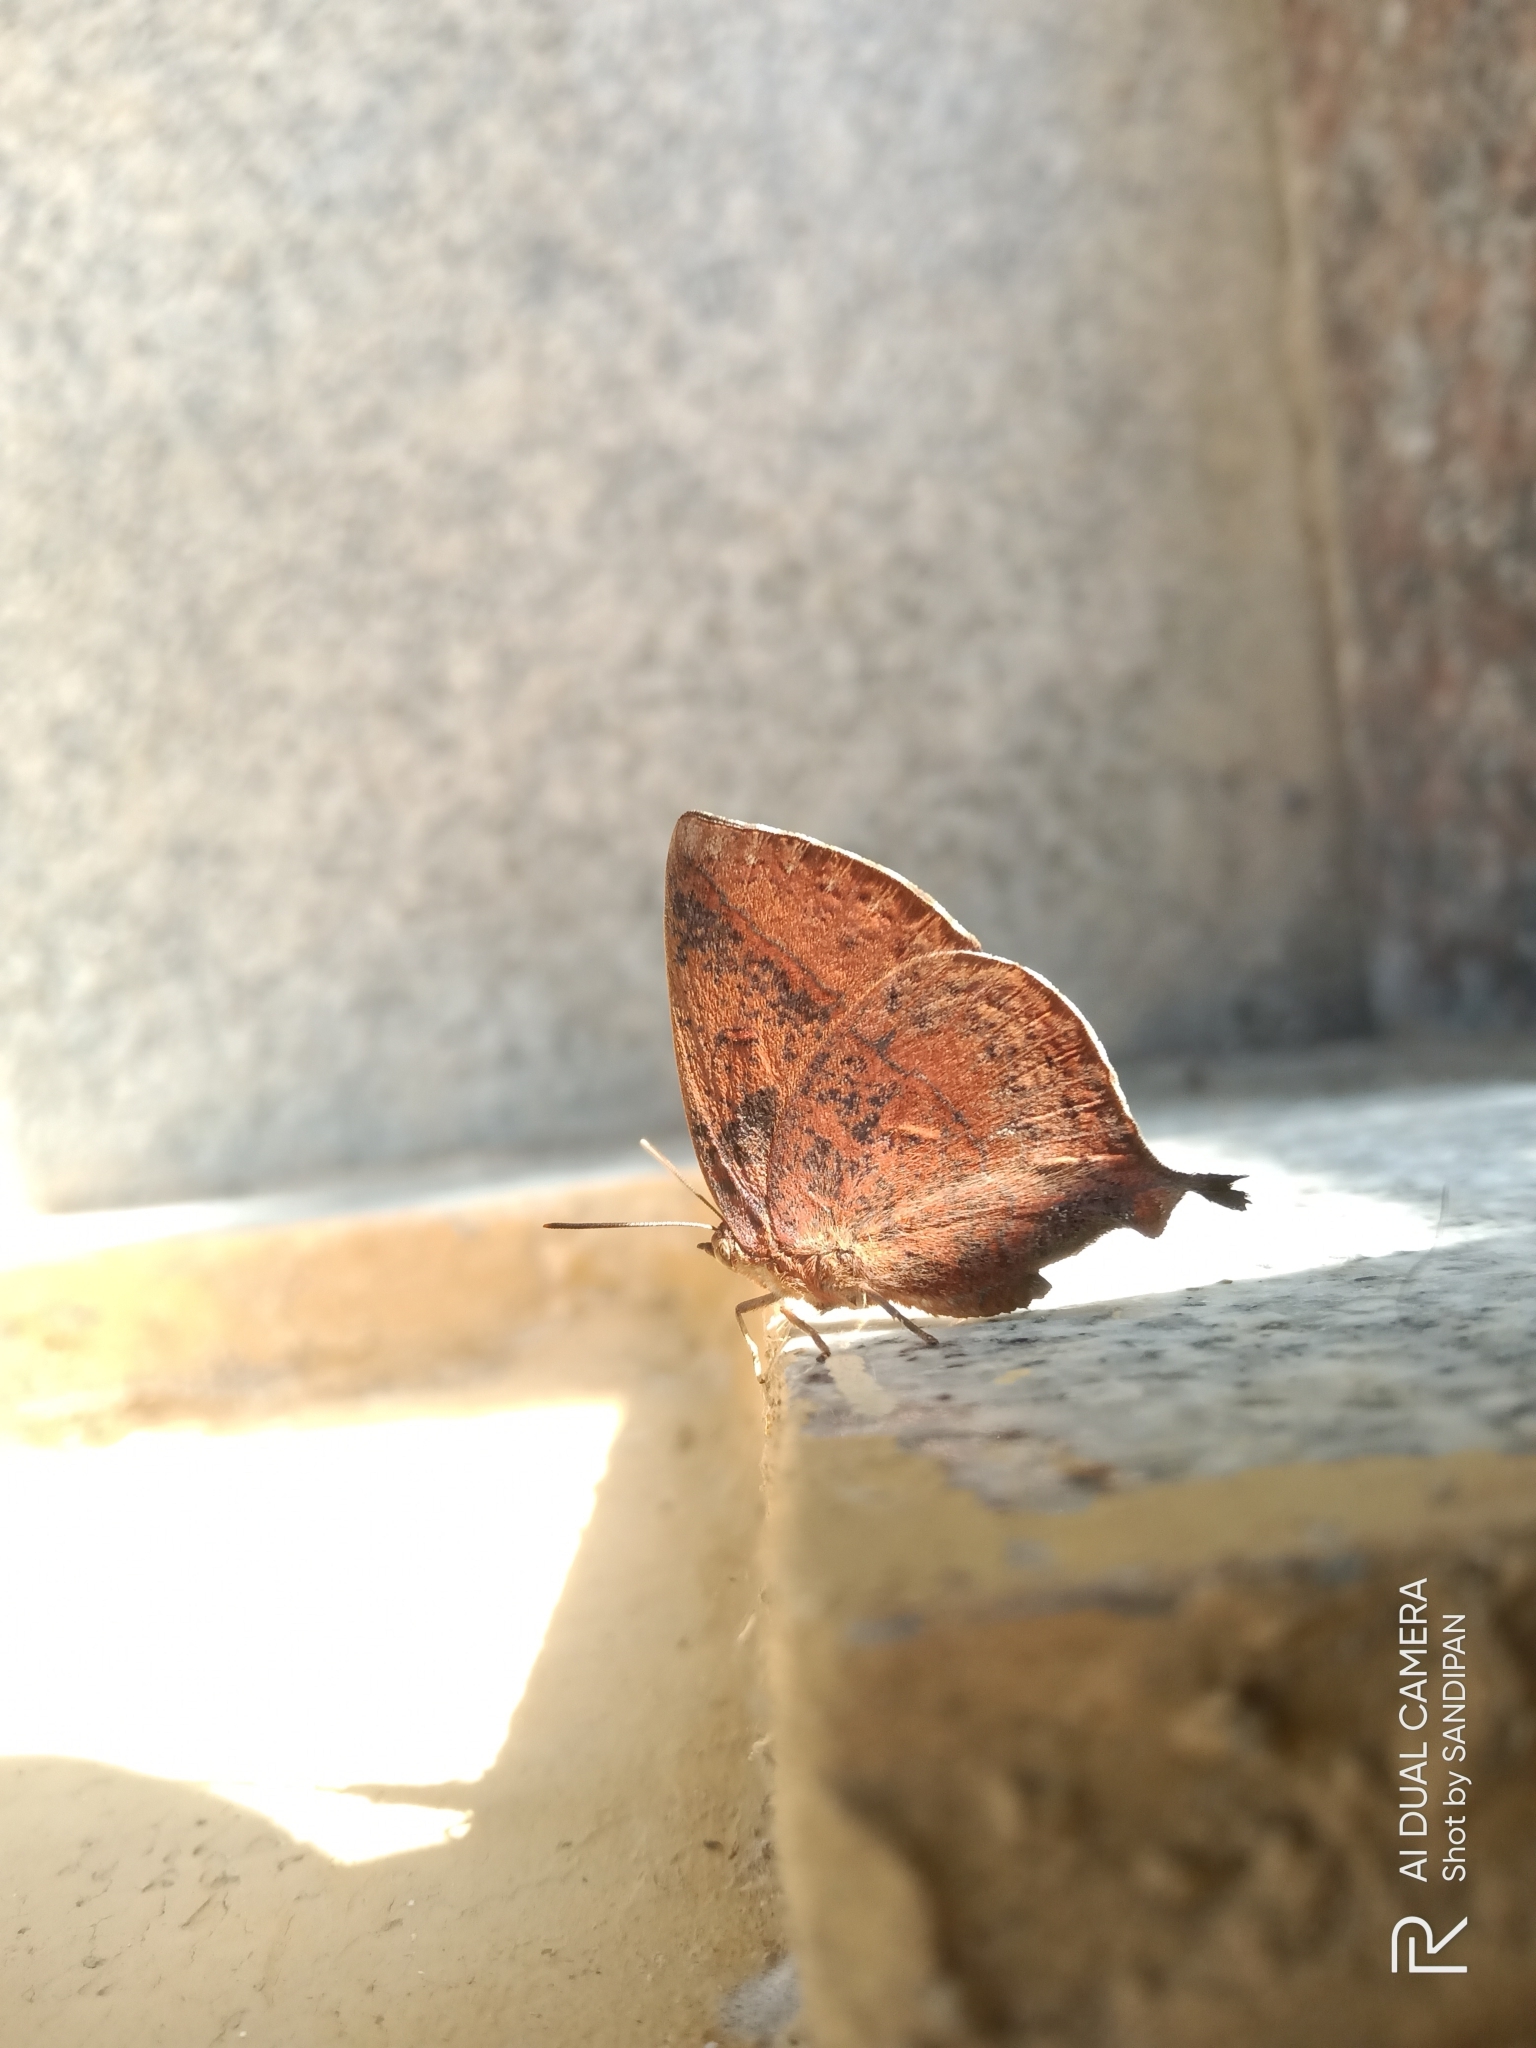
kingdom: Animalia
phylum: Arthropoda
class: Insecta
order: Lepidoptera
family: Lycaenidae
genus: Amblypodia
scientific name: Amblypodia anita
